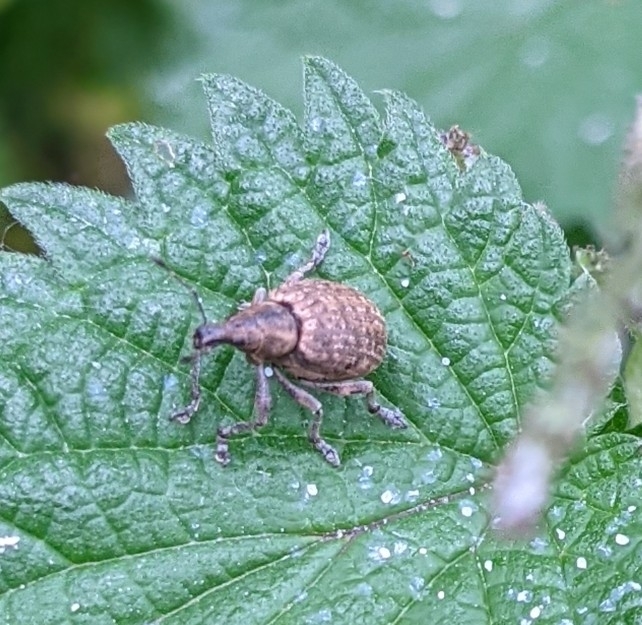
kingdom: Animalia
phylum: Arthropoda
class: Insecta
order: Coleoptera
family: Curculionidae
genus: Liophloeus
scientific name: Liophloeus tessulatus
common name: Weevil
